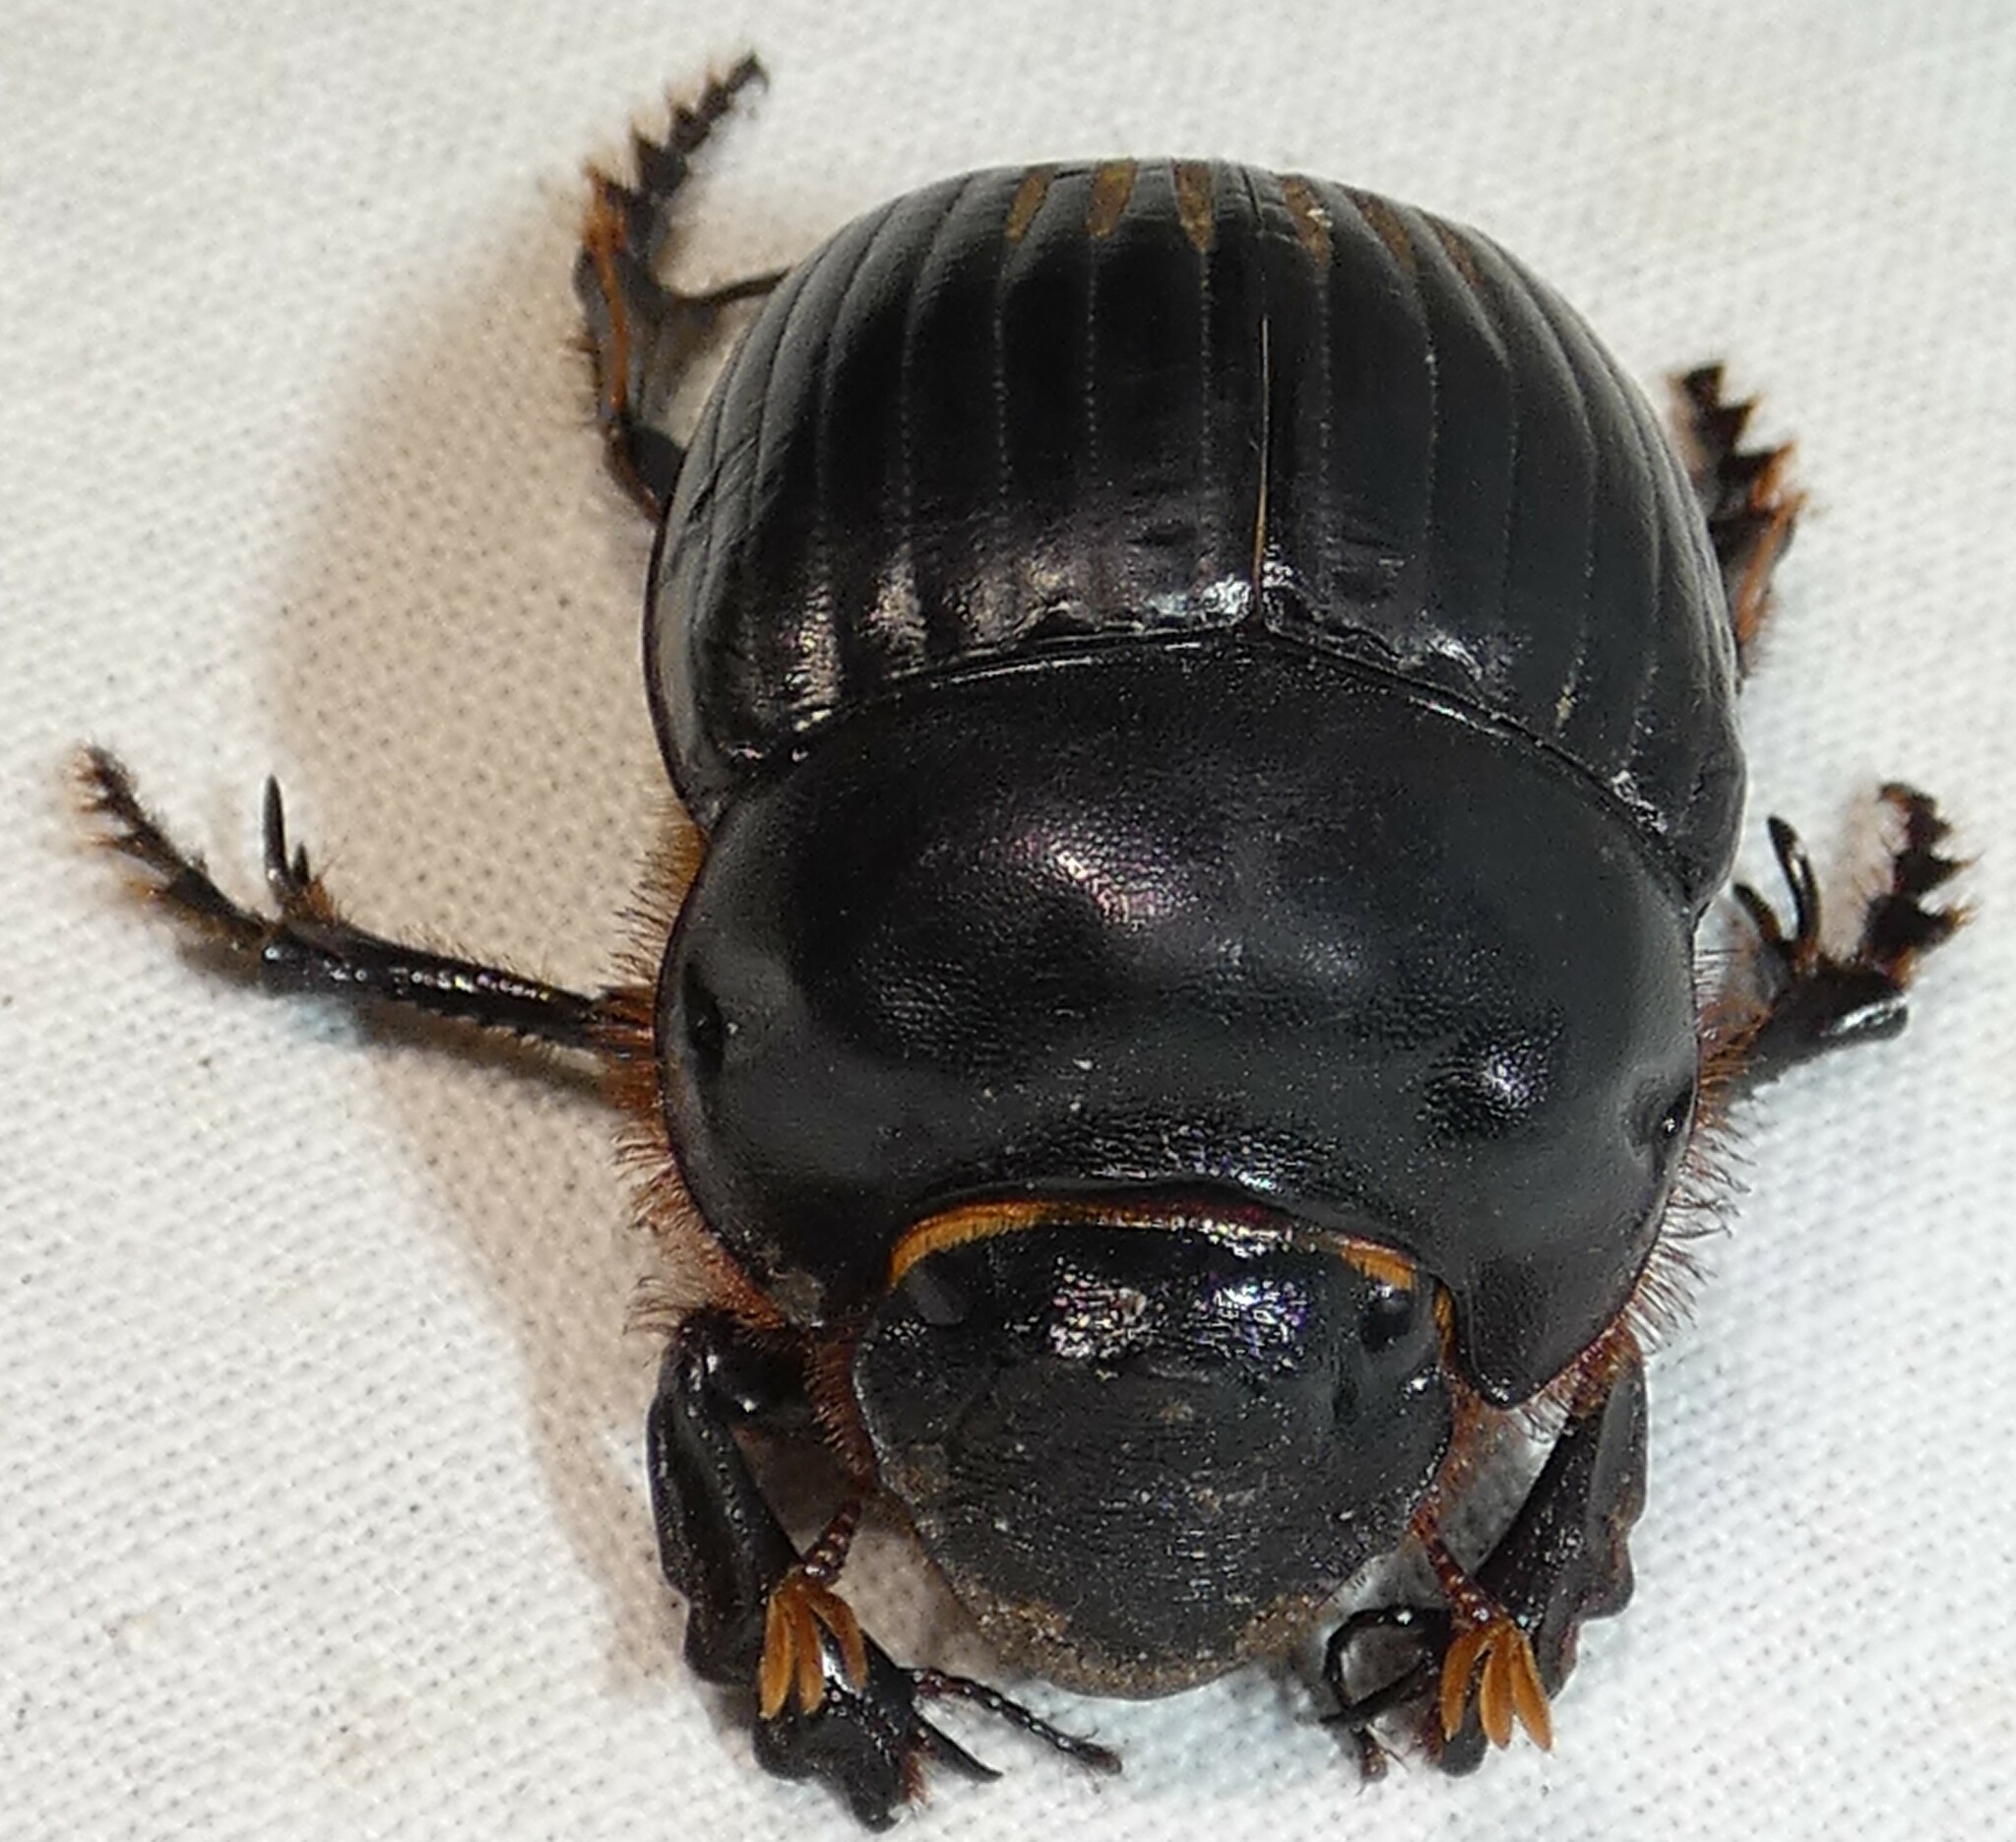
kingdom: Animalia
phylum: Arthropoda
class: Insecta
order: Coleoptera
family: Scarabaeidae
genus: Dichotomius
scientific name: Dichotomius carolinus
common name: Carolina copris
